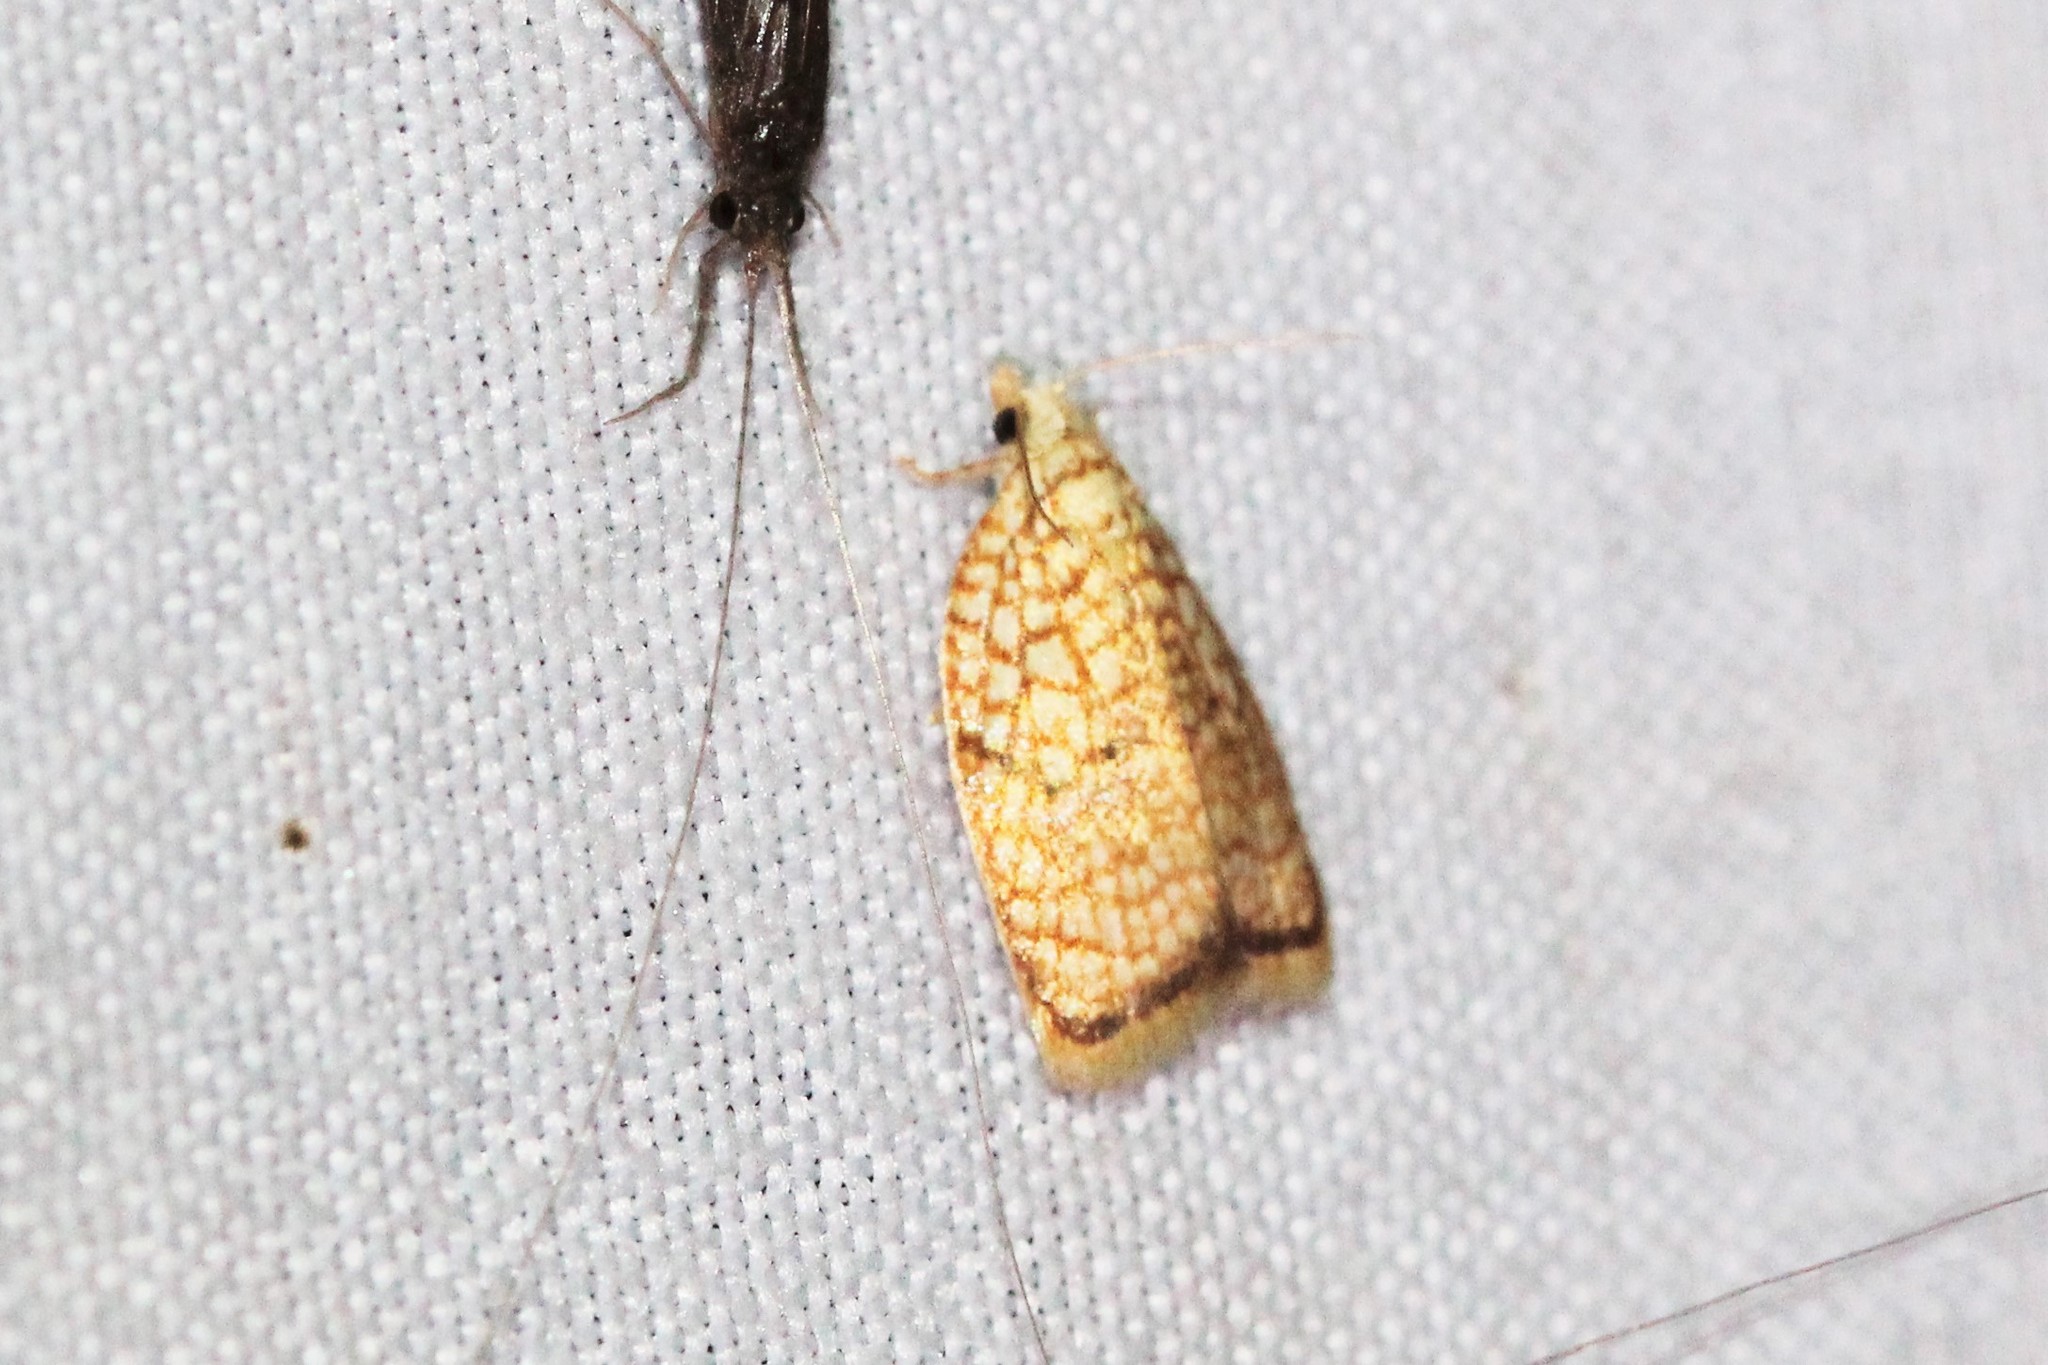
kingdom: Animalia
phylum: Arthropoda
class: Insecta
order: Lepidoptera
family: Tortricidae
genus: Acleris
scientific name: Acleris forsskaleana
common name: Maple button
